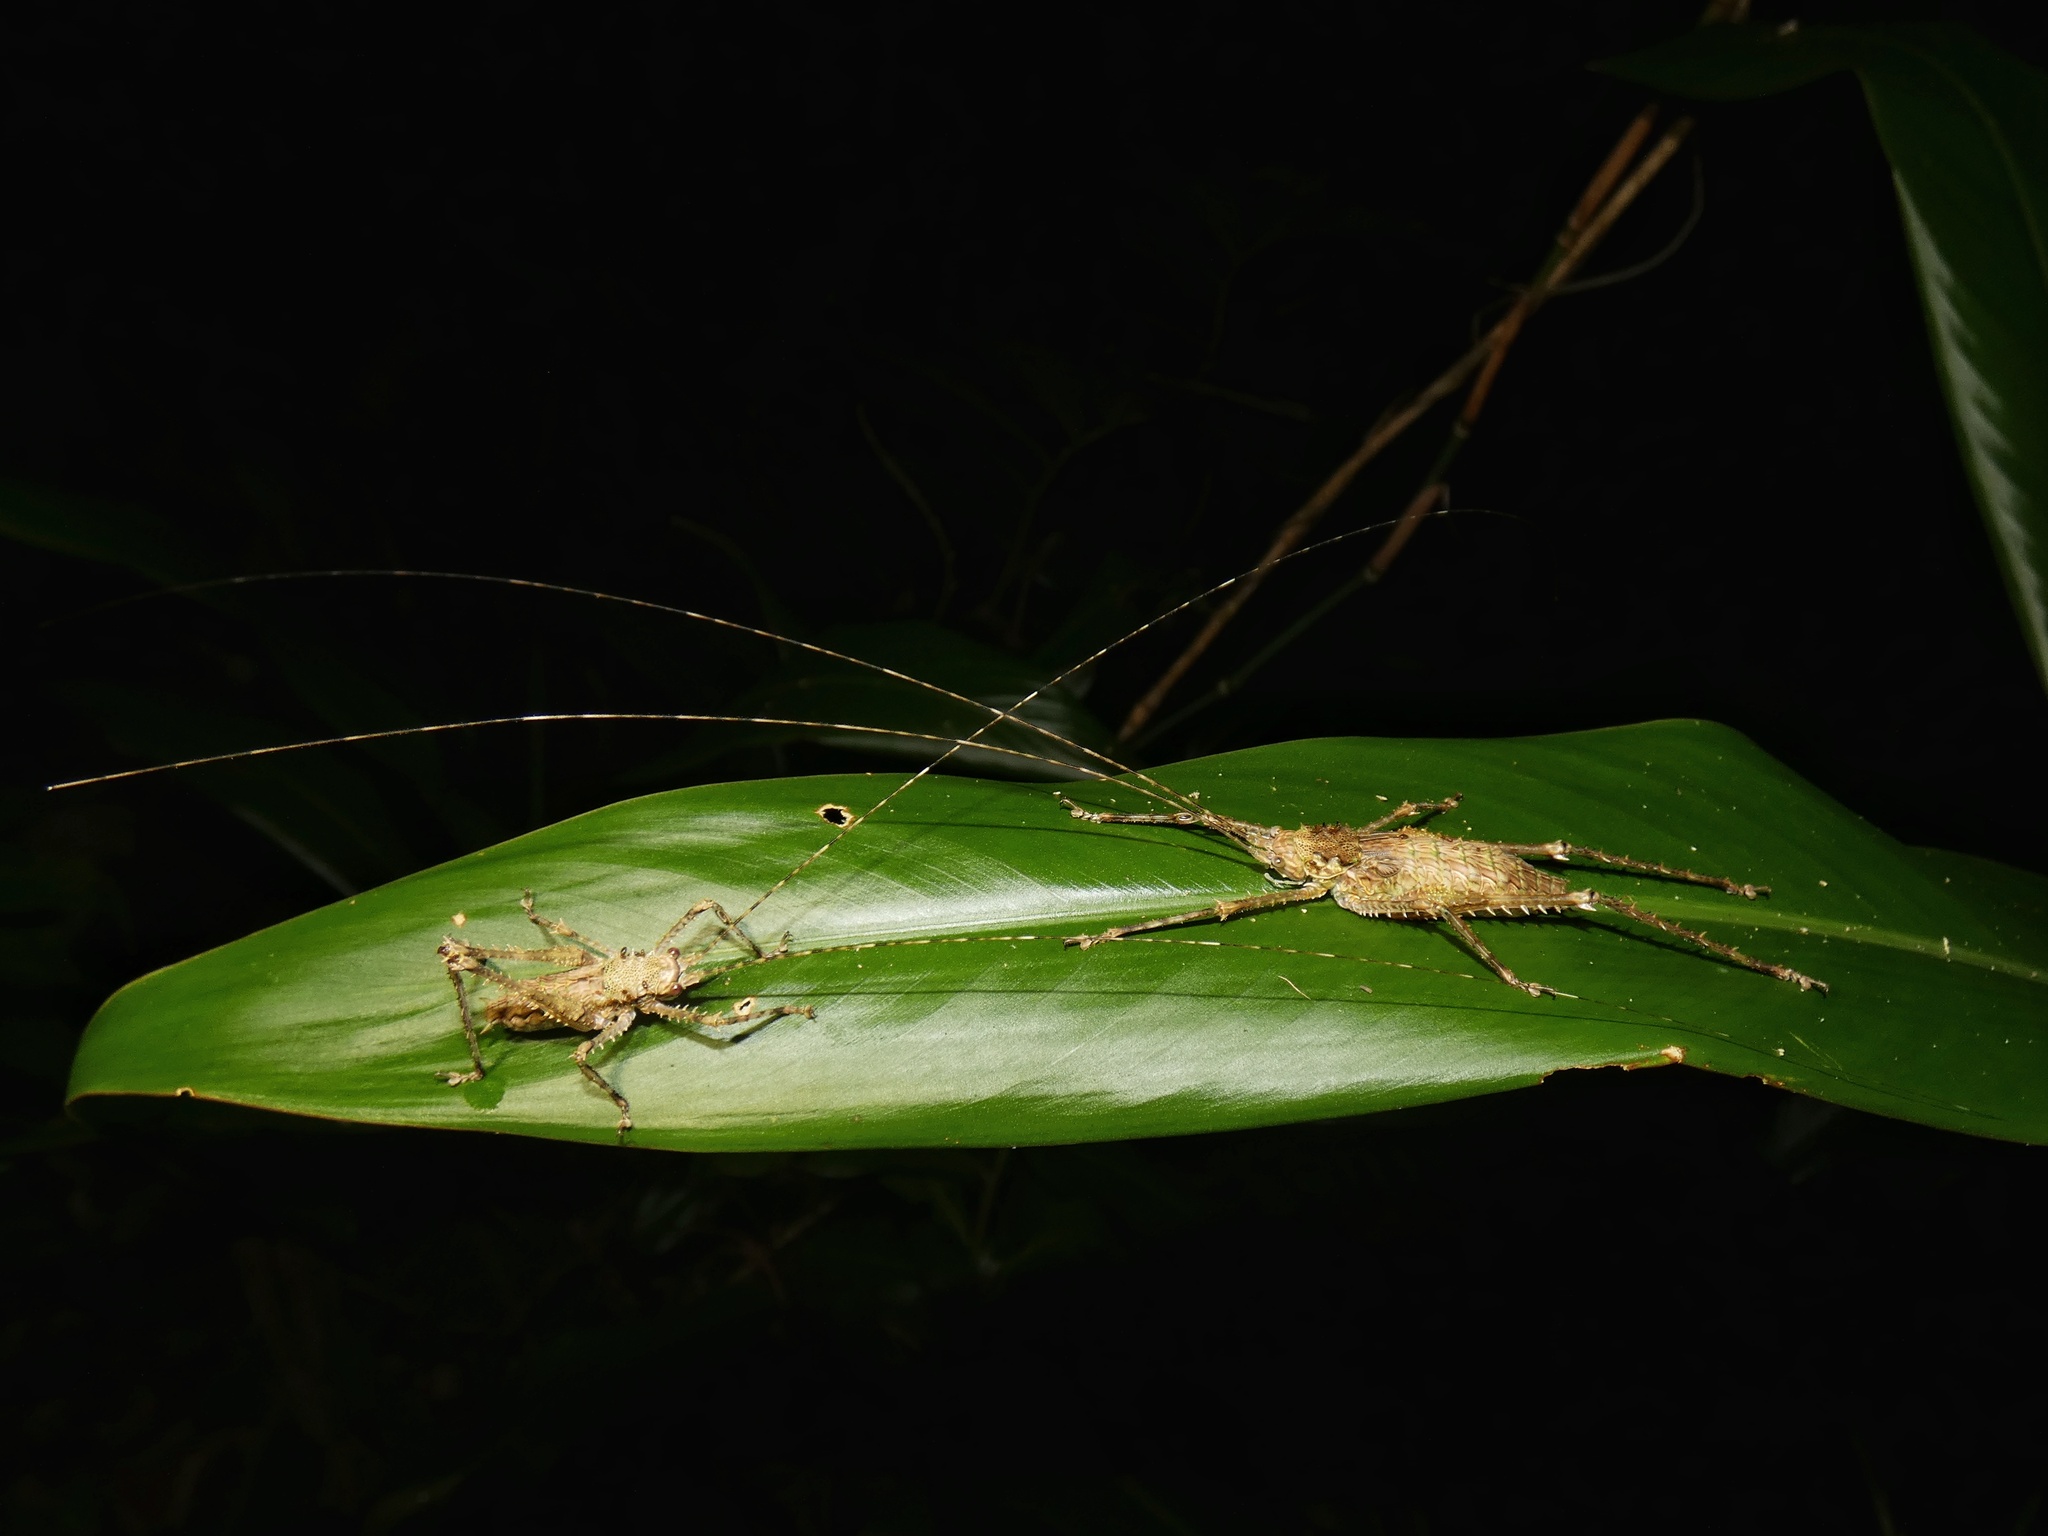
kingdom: Animalia
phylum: Arthropoda
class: Insecta
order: Orthoptera
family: Tettigoniidae
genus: Phricta
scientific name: Phricta spinosa
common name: Giant spiny forest katydid
